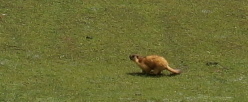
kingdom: Animalia
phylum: Chordata
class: Mammalia
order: Rodentia
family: Sciuridae
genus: Marmota
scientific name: Marmota caudata
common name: Long-tailed marmot
